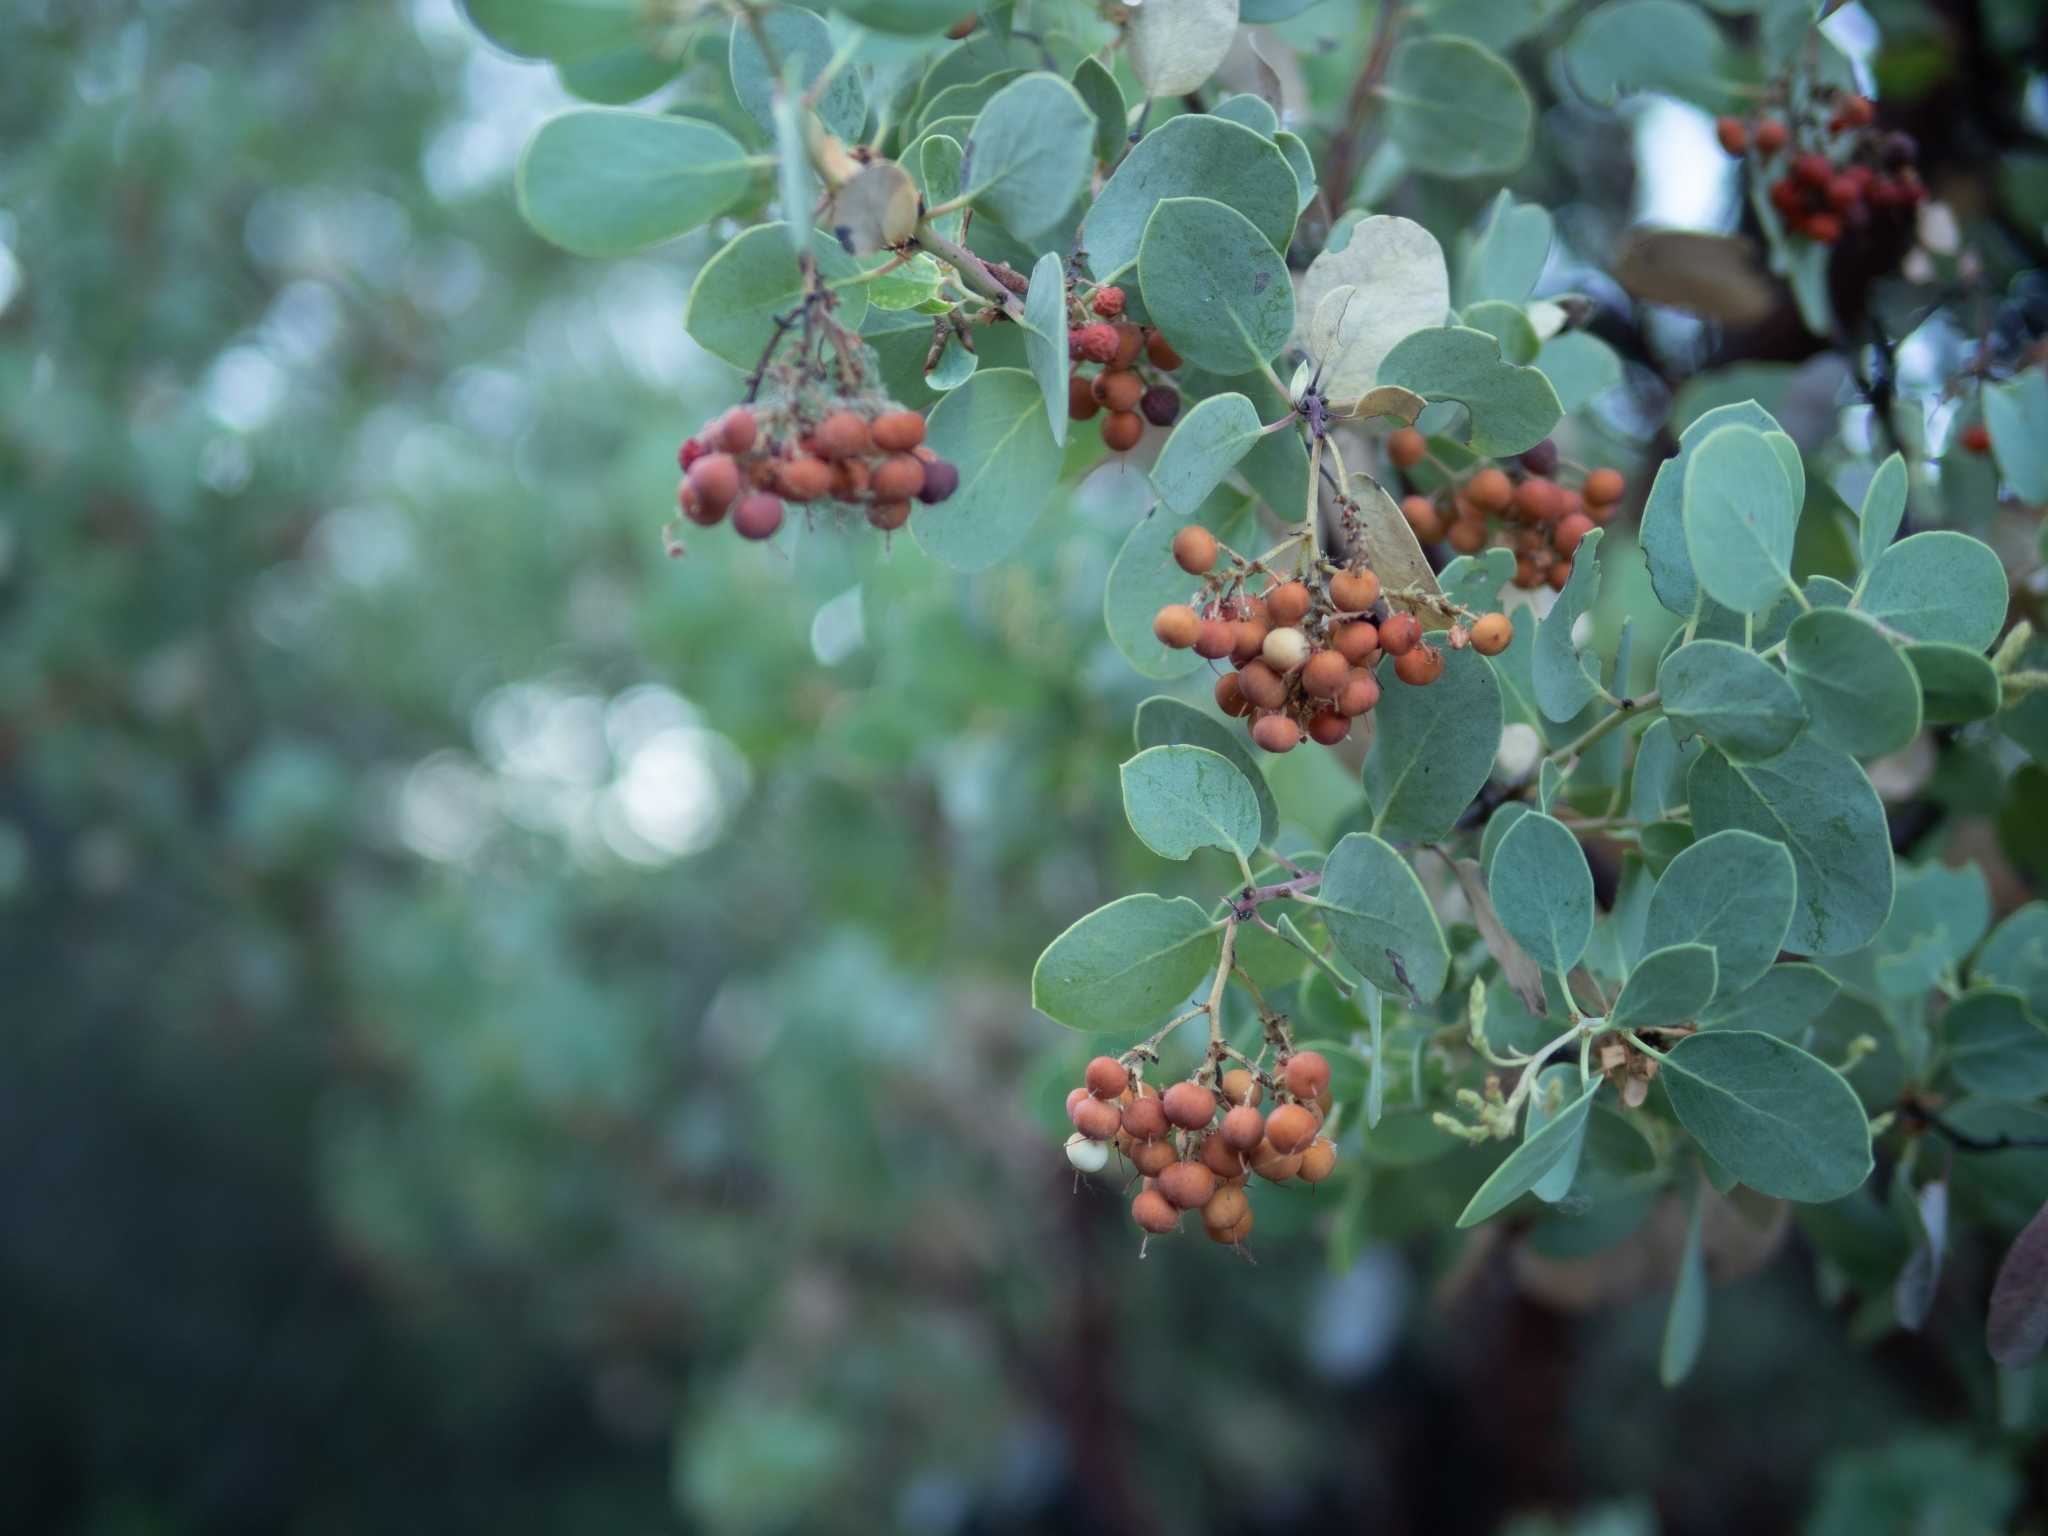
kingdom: Plantae
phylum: Tracheophyta
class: Magnoliopsida
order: Ericales
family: Ericaceae
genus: Arctostaphylos
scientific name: Arctostaphylos viscida
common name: White-leaf manzanita
